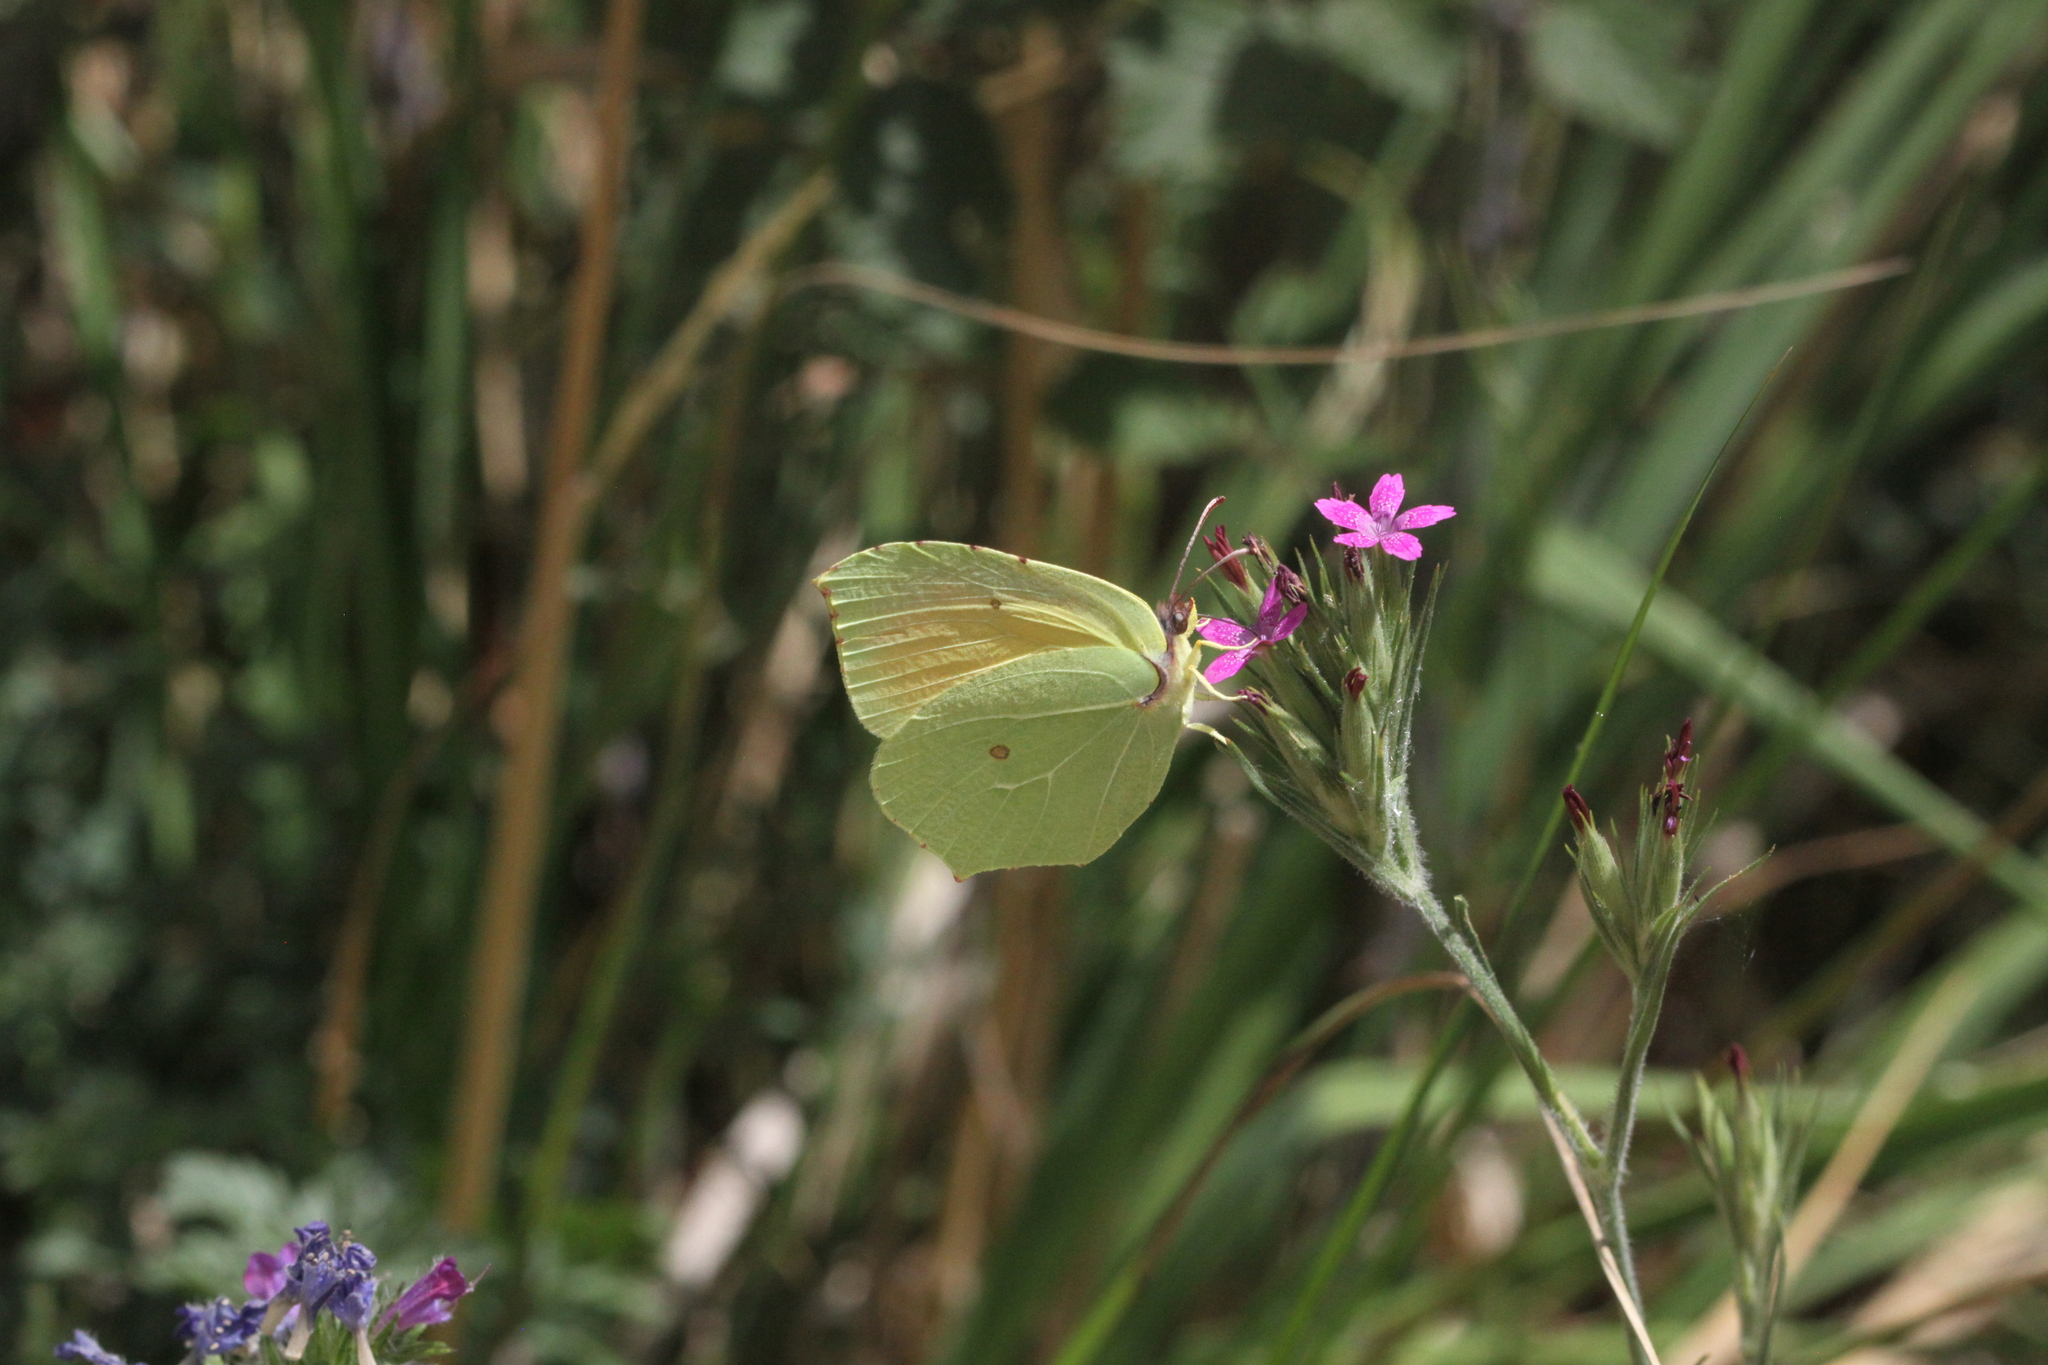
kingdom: Animalia
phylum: Arthropoda
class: Insecta
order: Lepidoptera
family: Pieridae
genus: Gonepteryx
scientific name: Gonepteryx cleopatra
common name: Cleopatra
